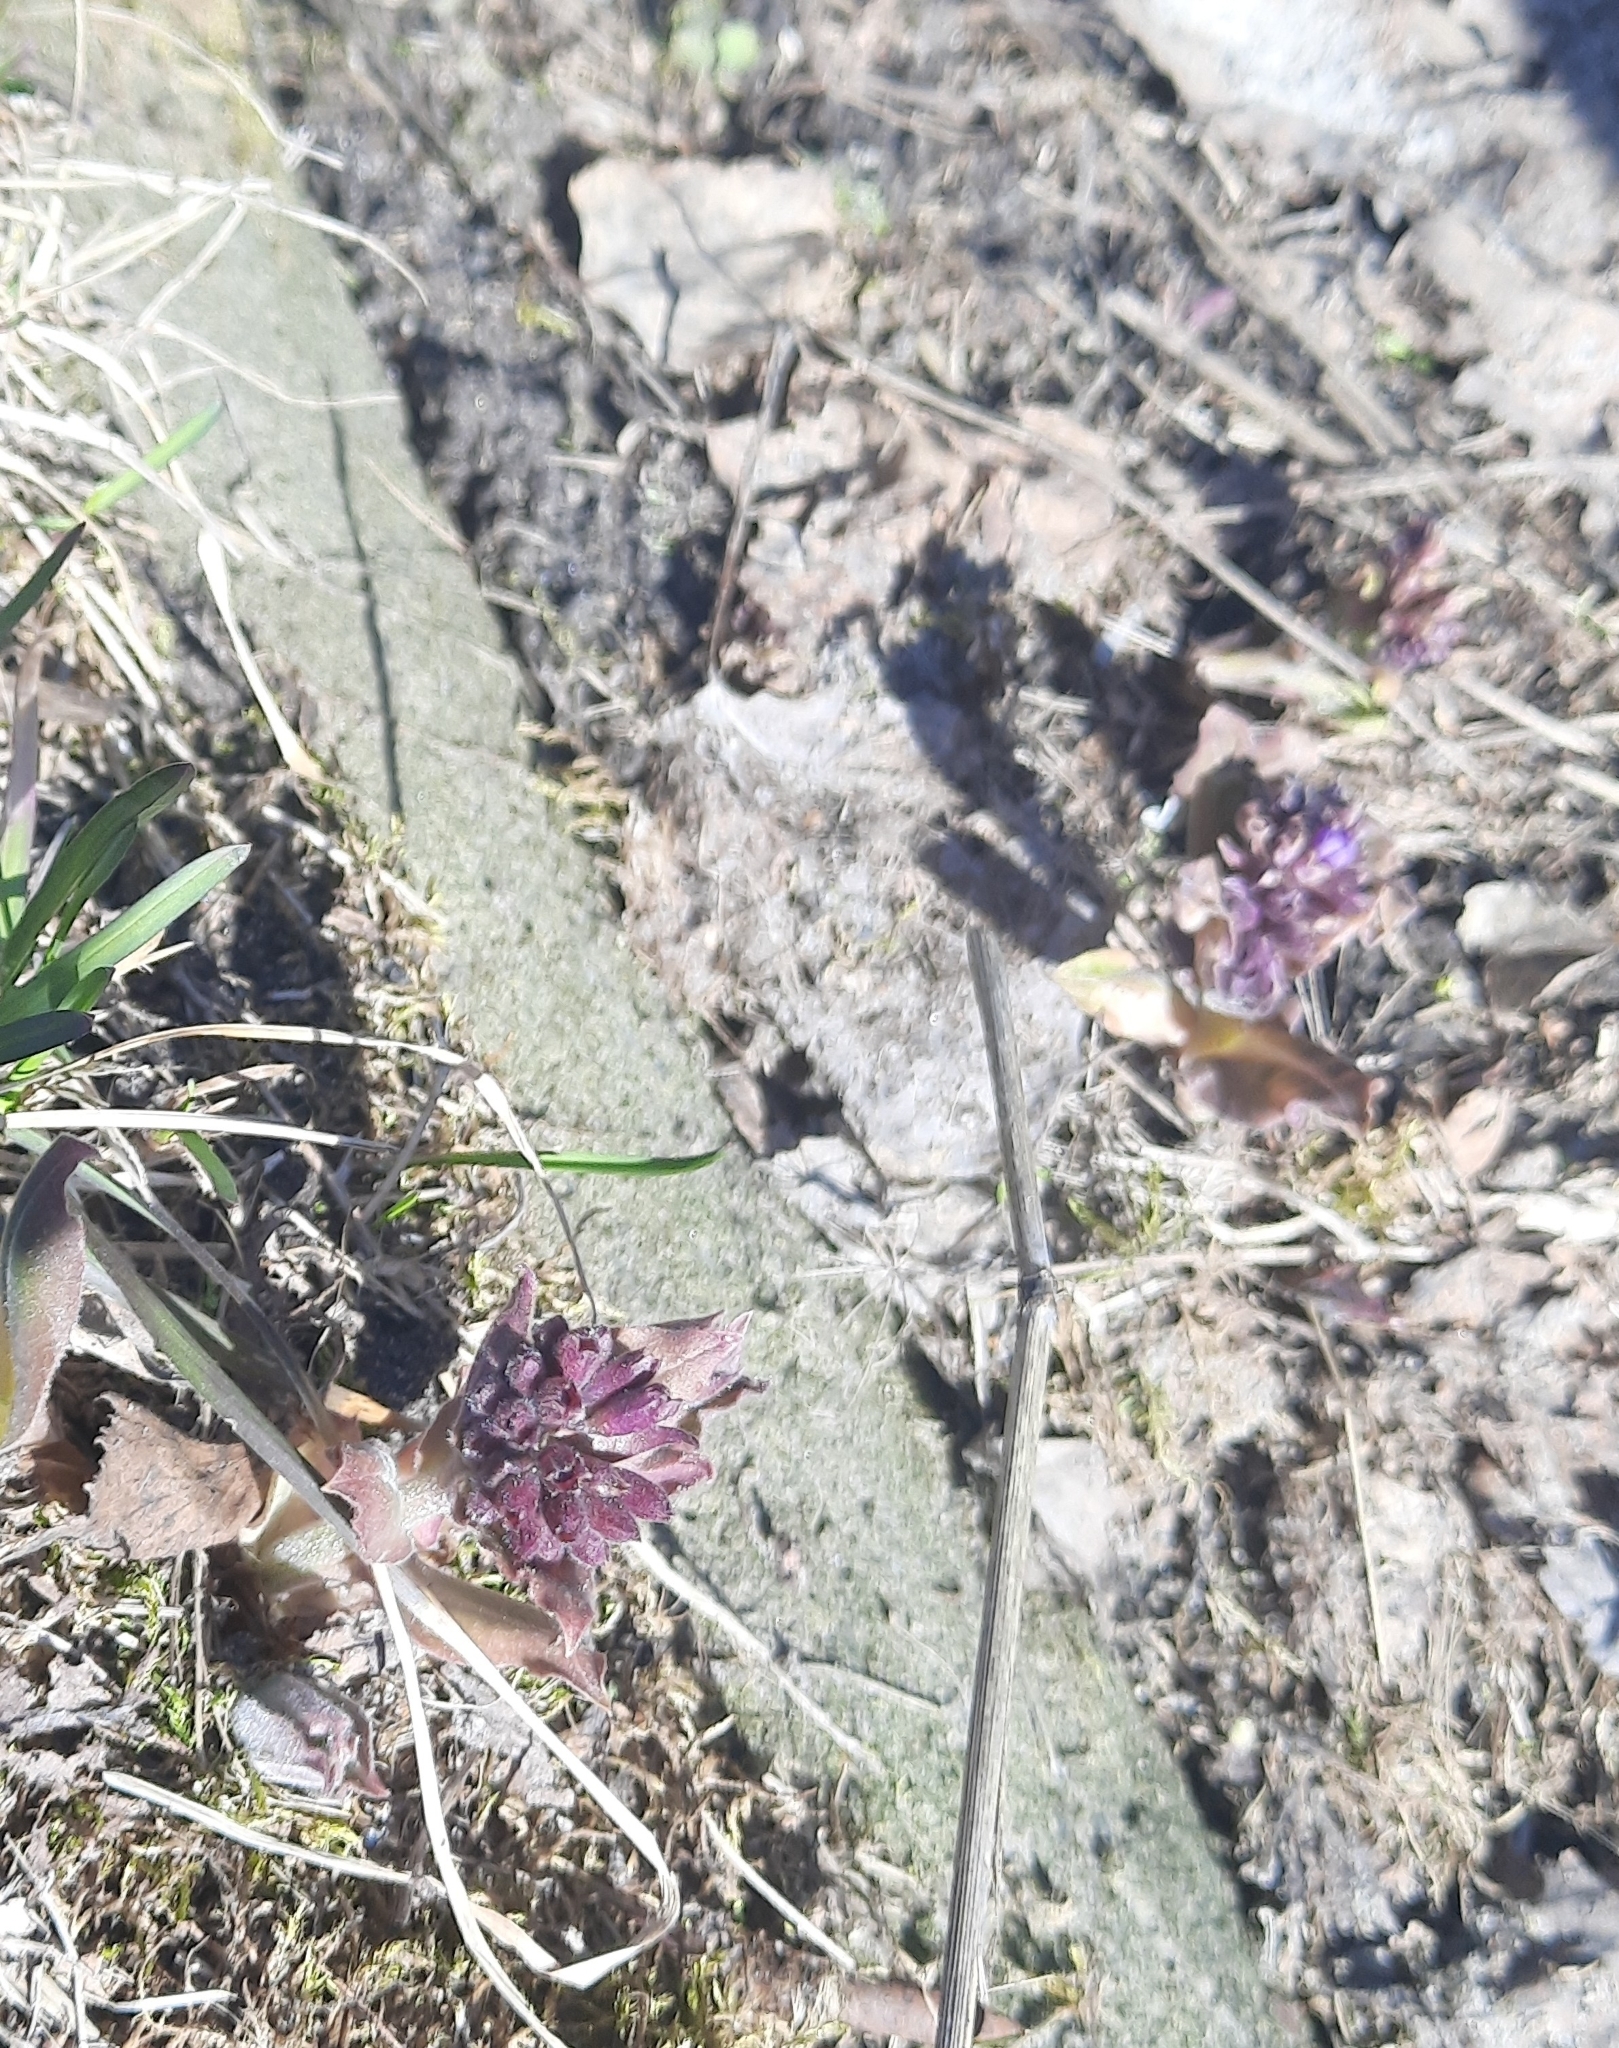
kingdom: Plantae
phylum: Tracheophyta
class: Magnoliopsida
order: Boraginales
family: Boraginaceae
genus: Pulmonaria
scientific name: Pulmonaria mollis
